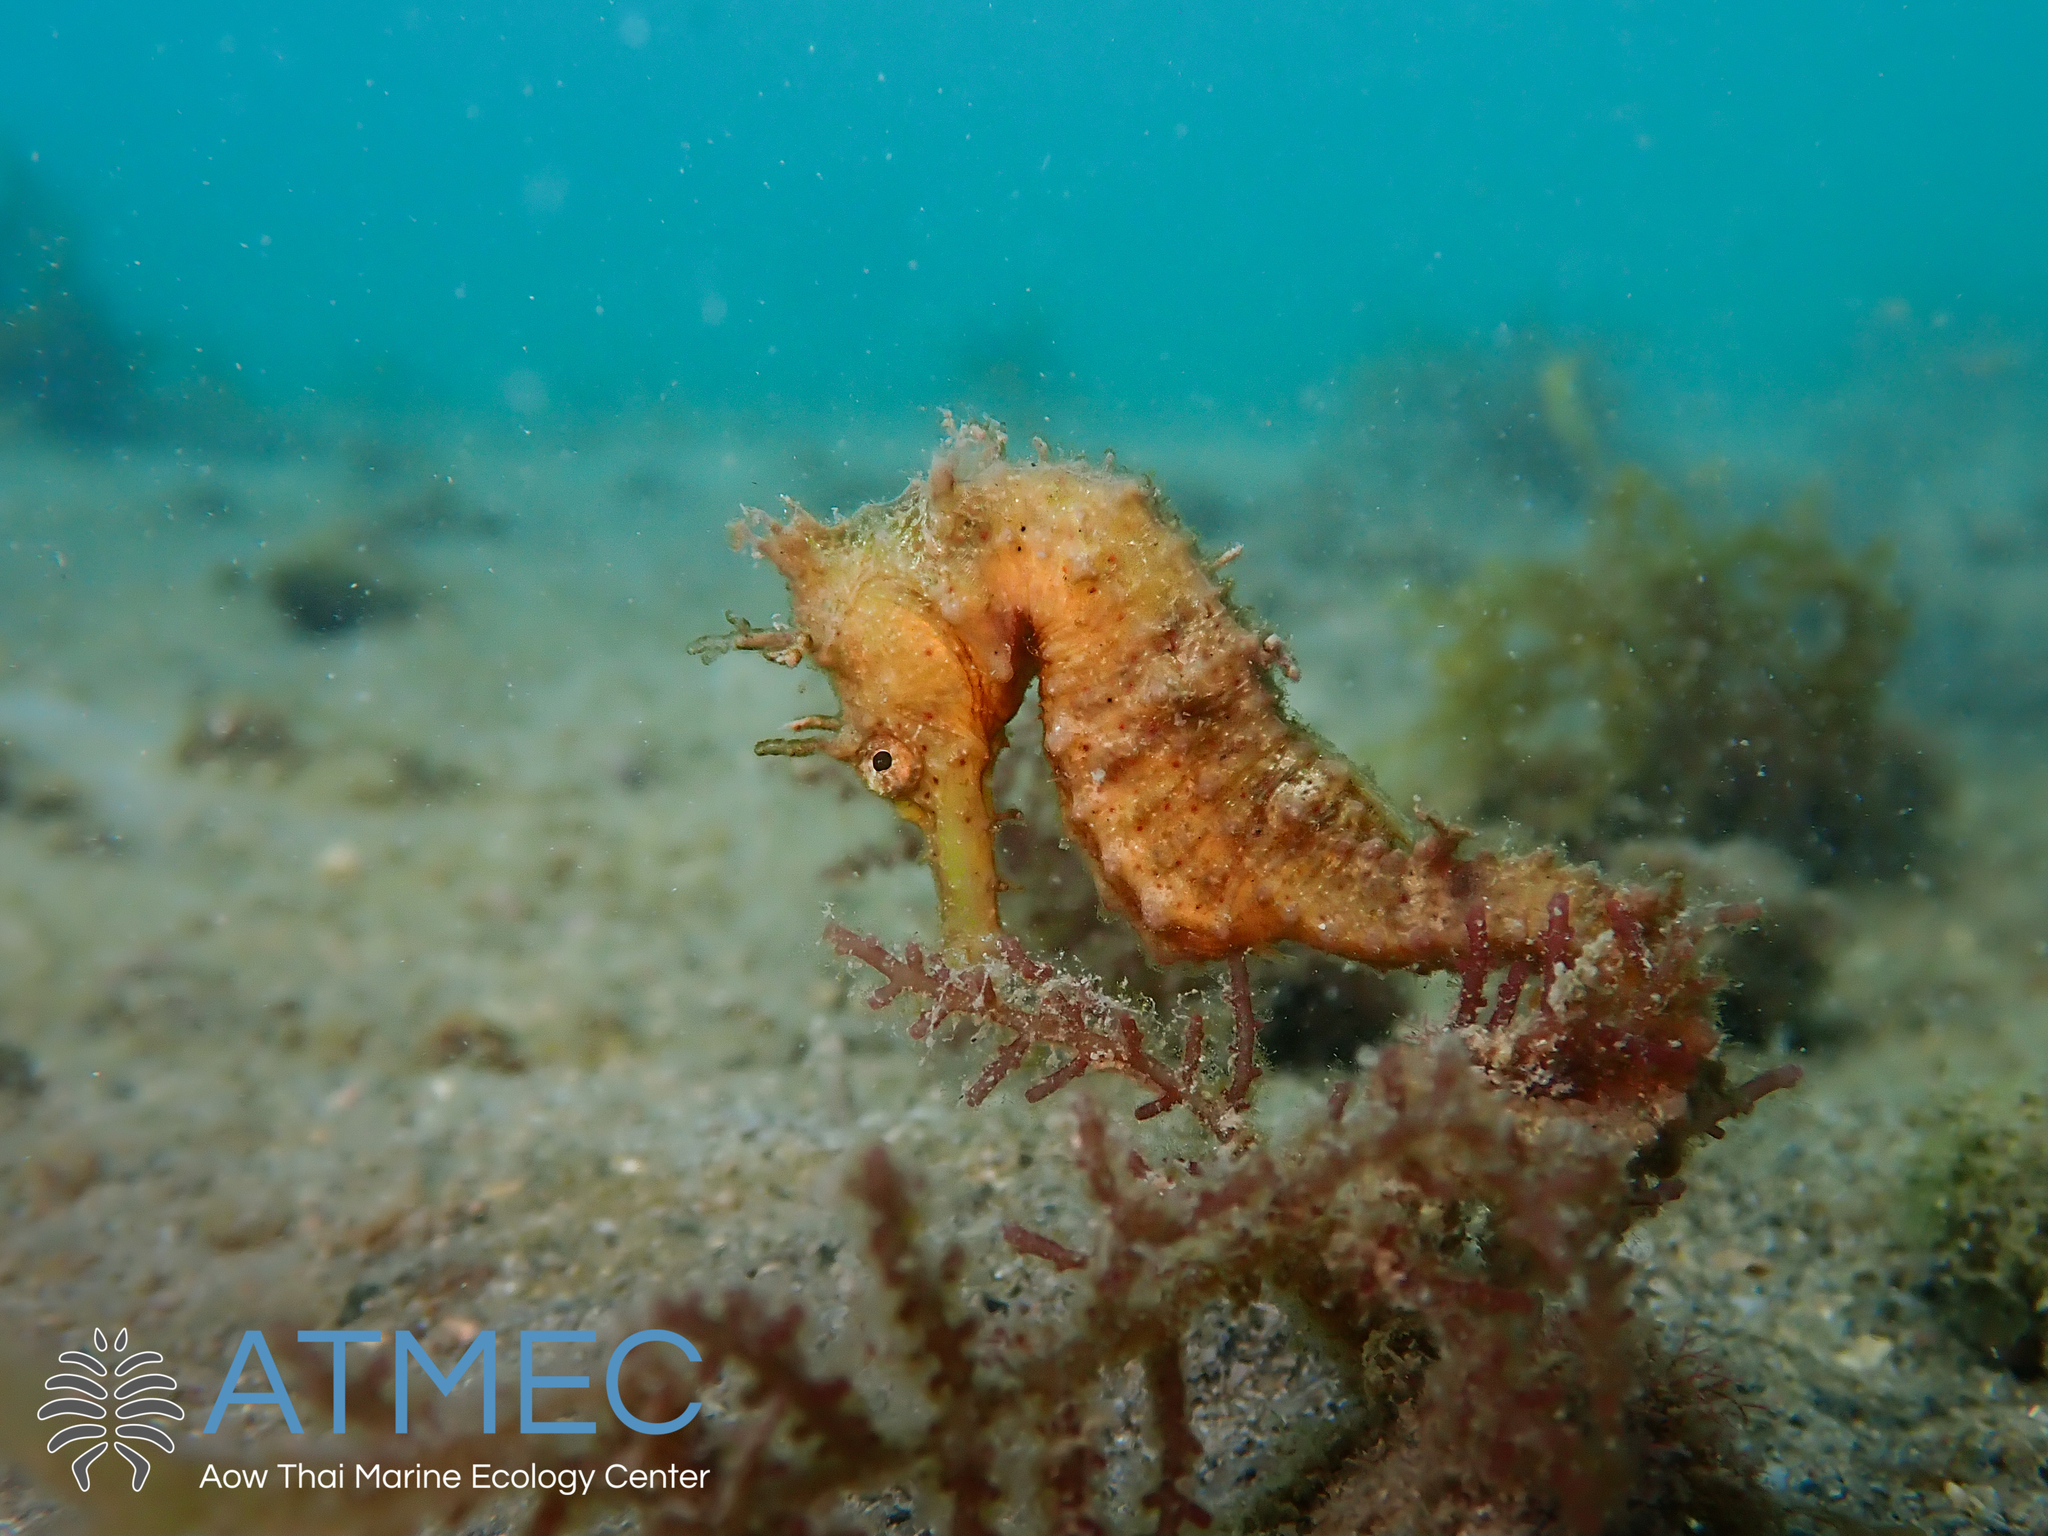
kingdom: Animalia
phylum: Chordata
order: Syngnathiformes
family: Syngnathidae
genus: Hippocampus
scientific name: Hippocampus kuda
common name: Spotted seahorse
